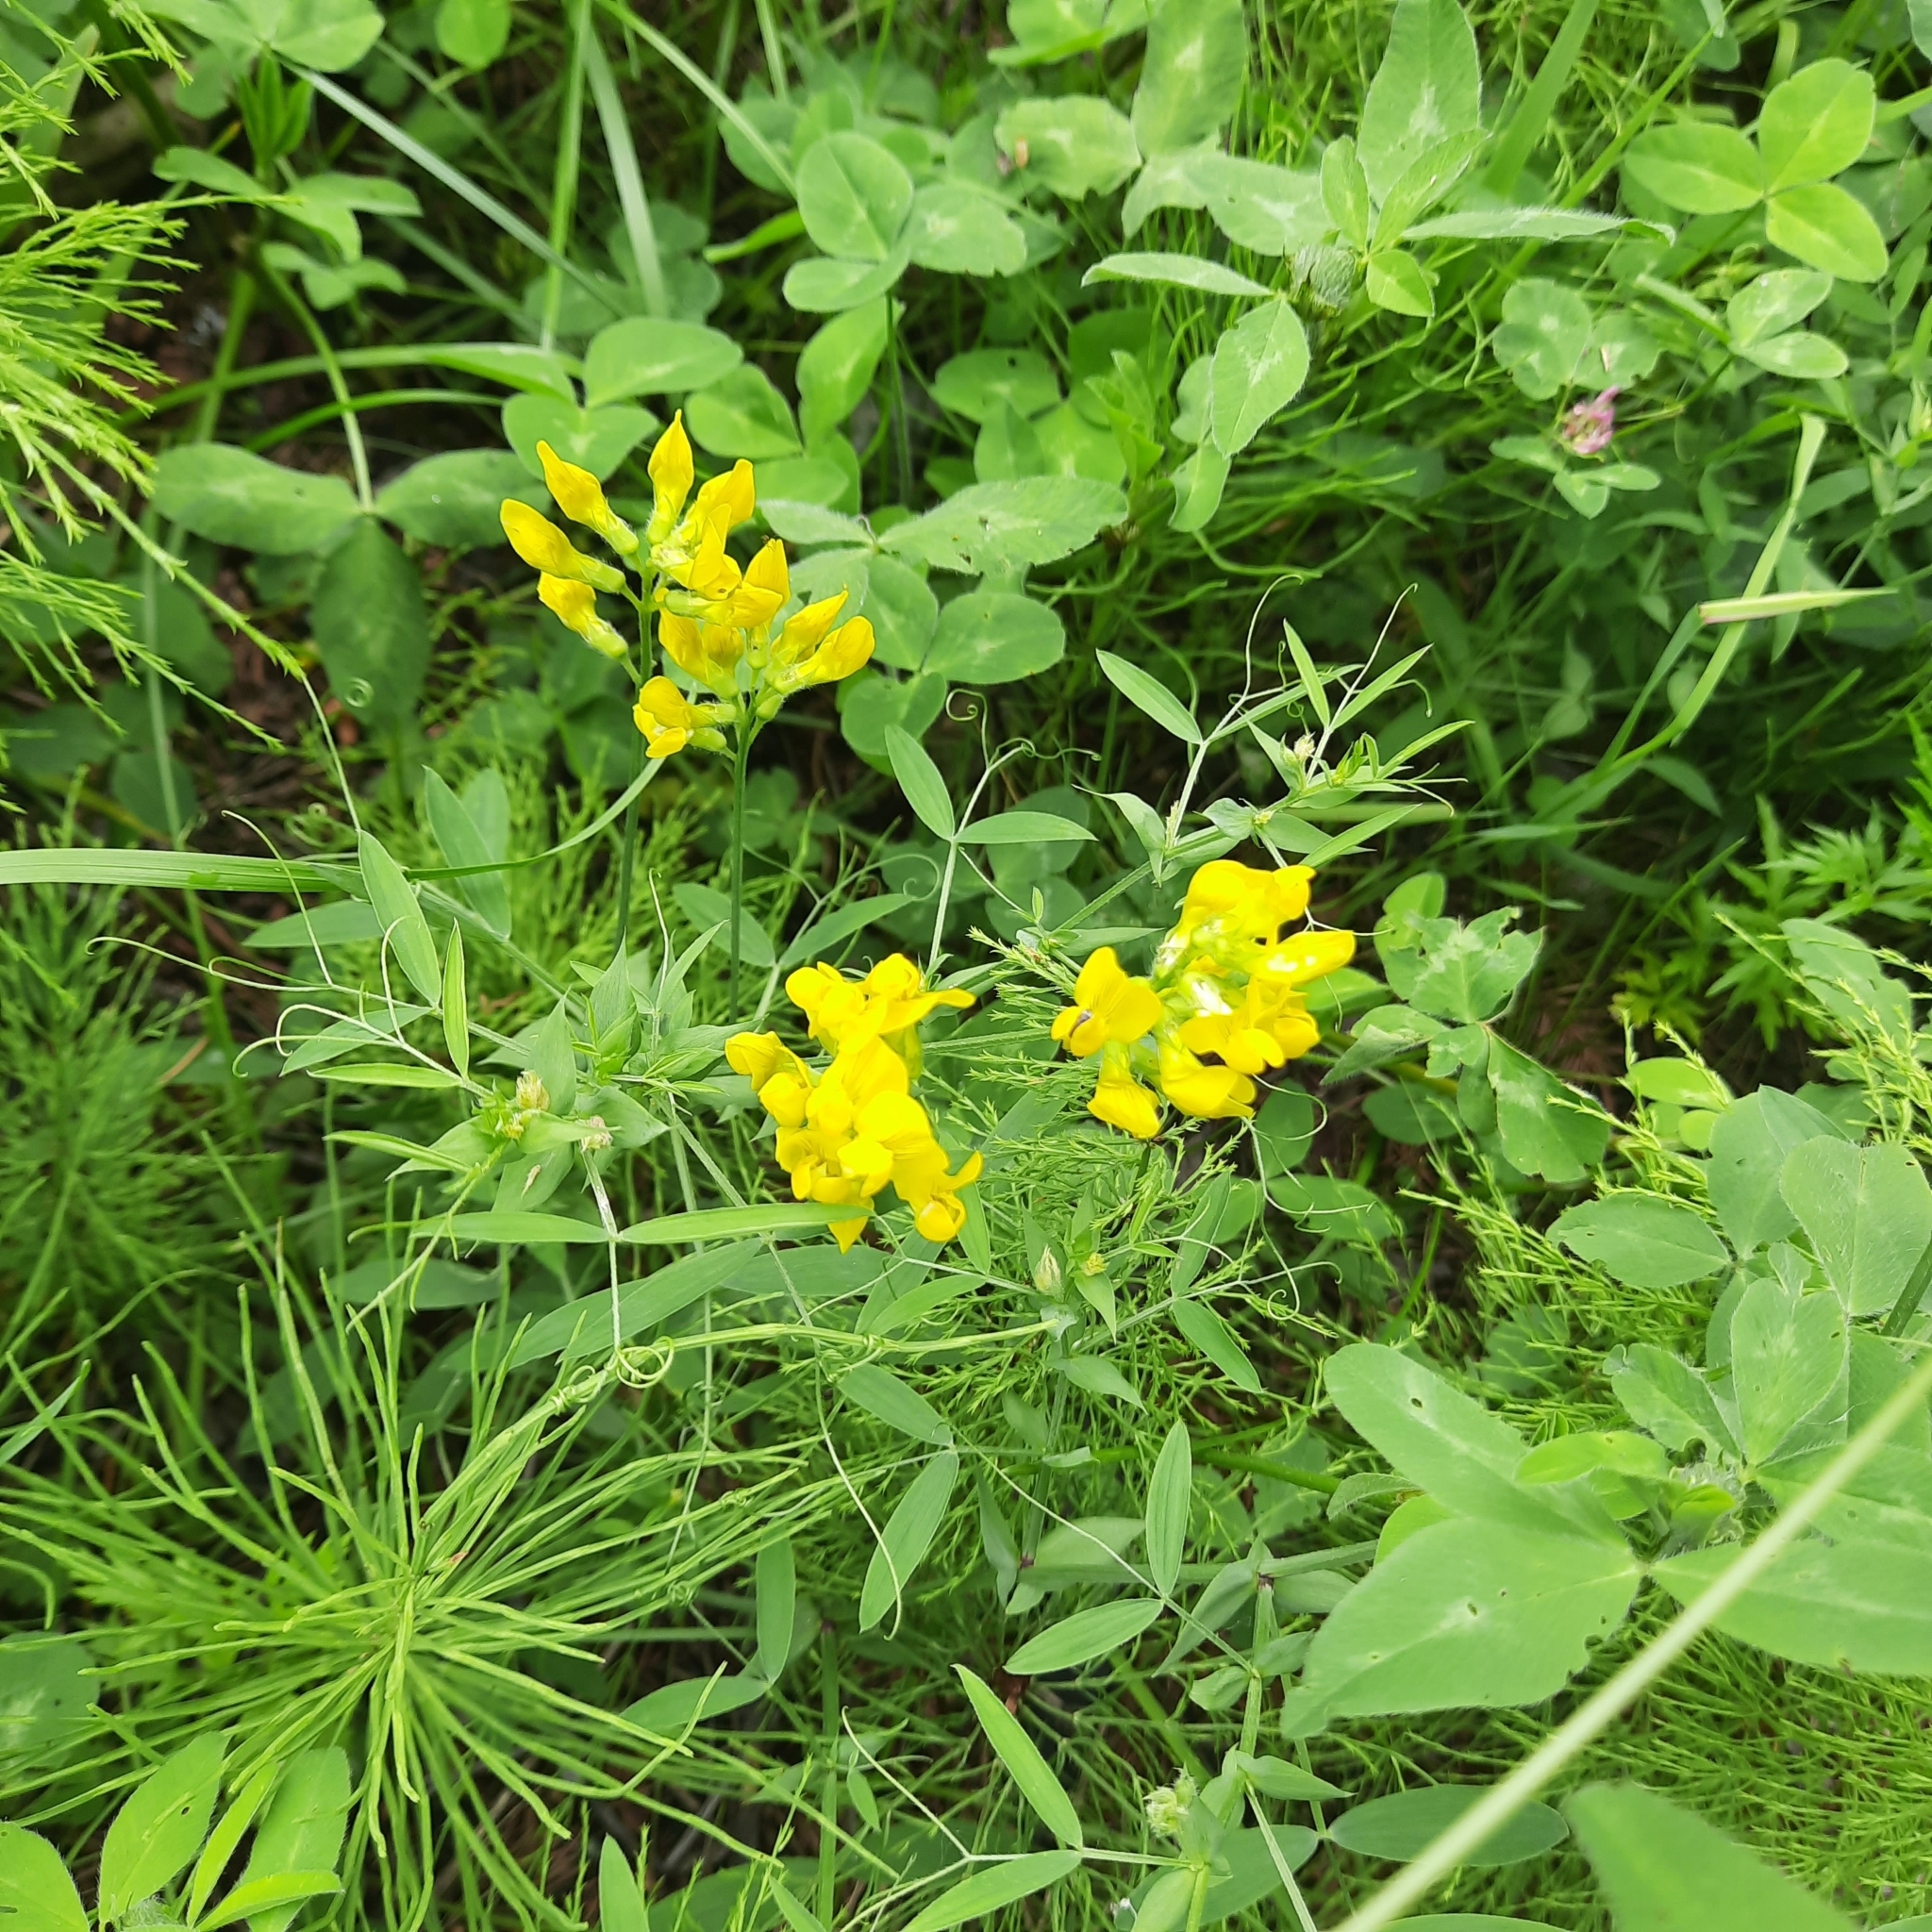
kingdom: Plantae
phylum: Tracheophyta
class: Magnoliopsida
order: Fabales
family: Fabaceae
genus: Lathyrus
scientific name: Lathyrus pratensis
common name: Meadow vetchling
